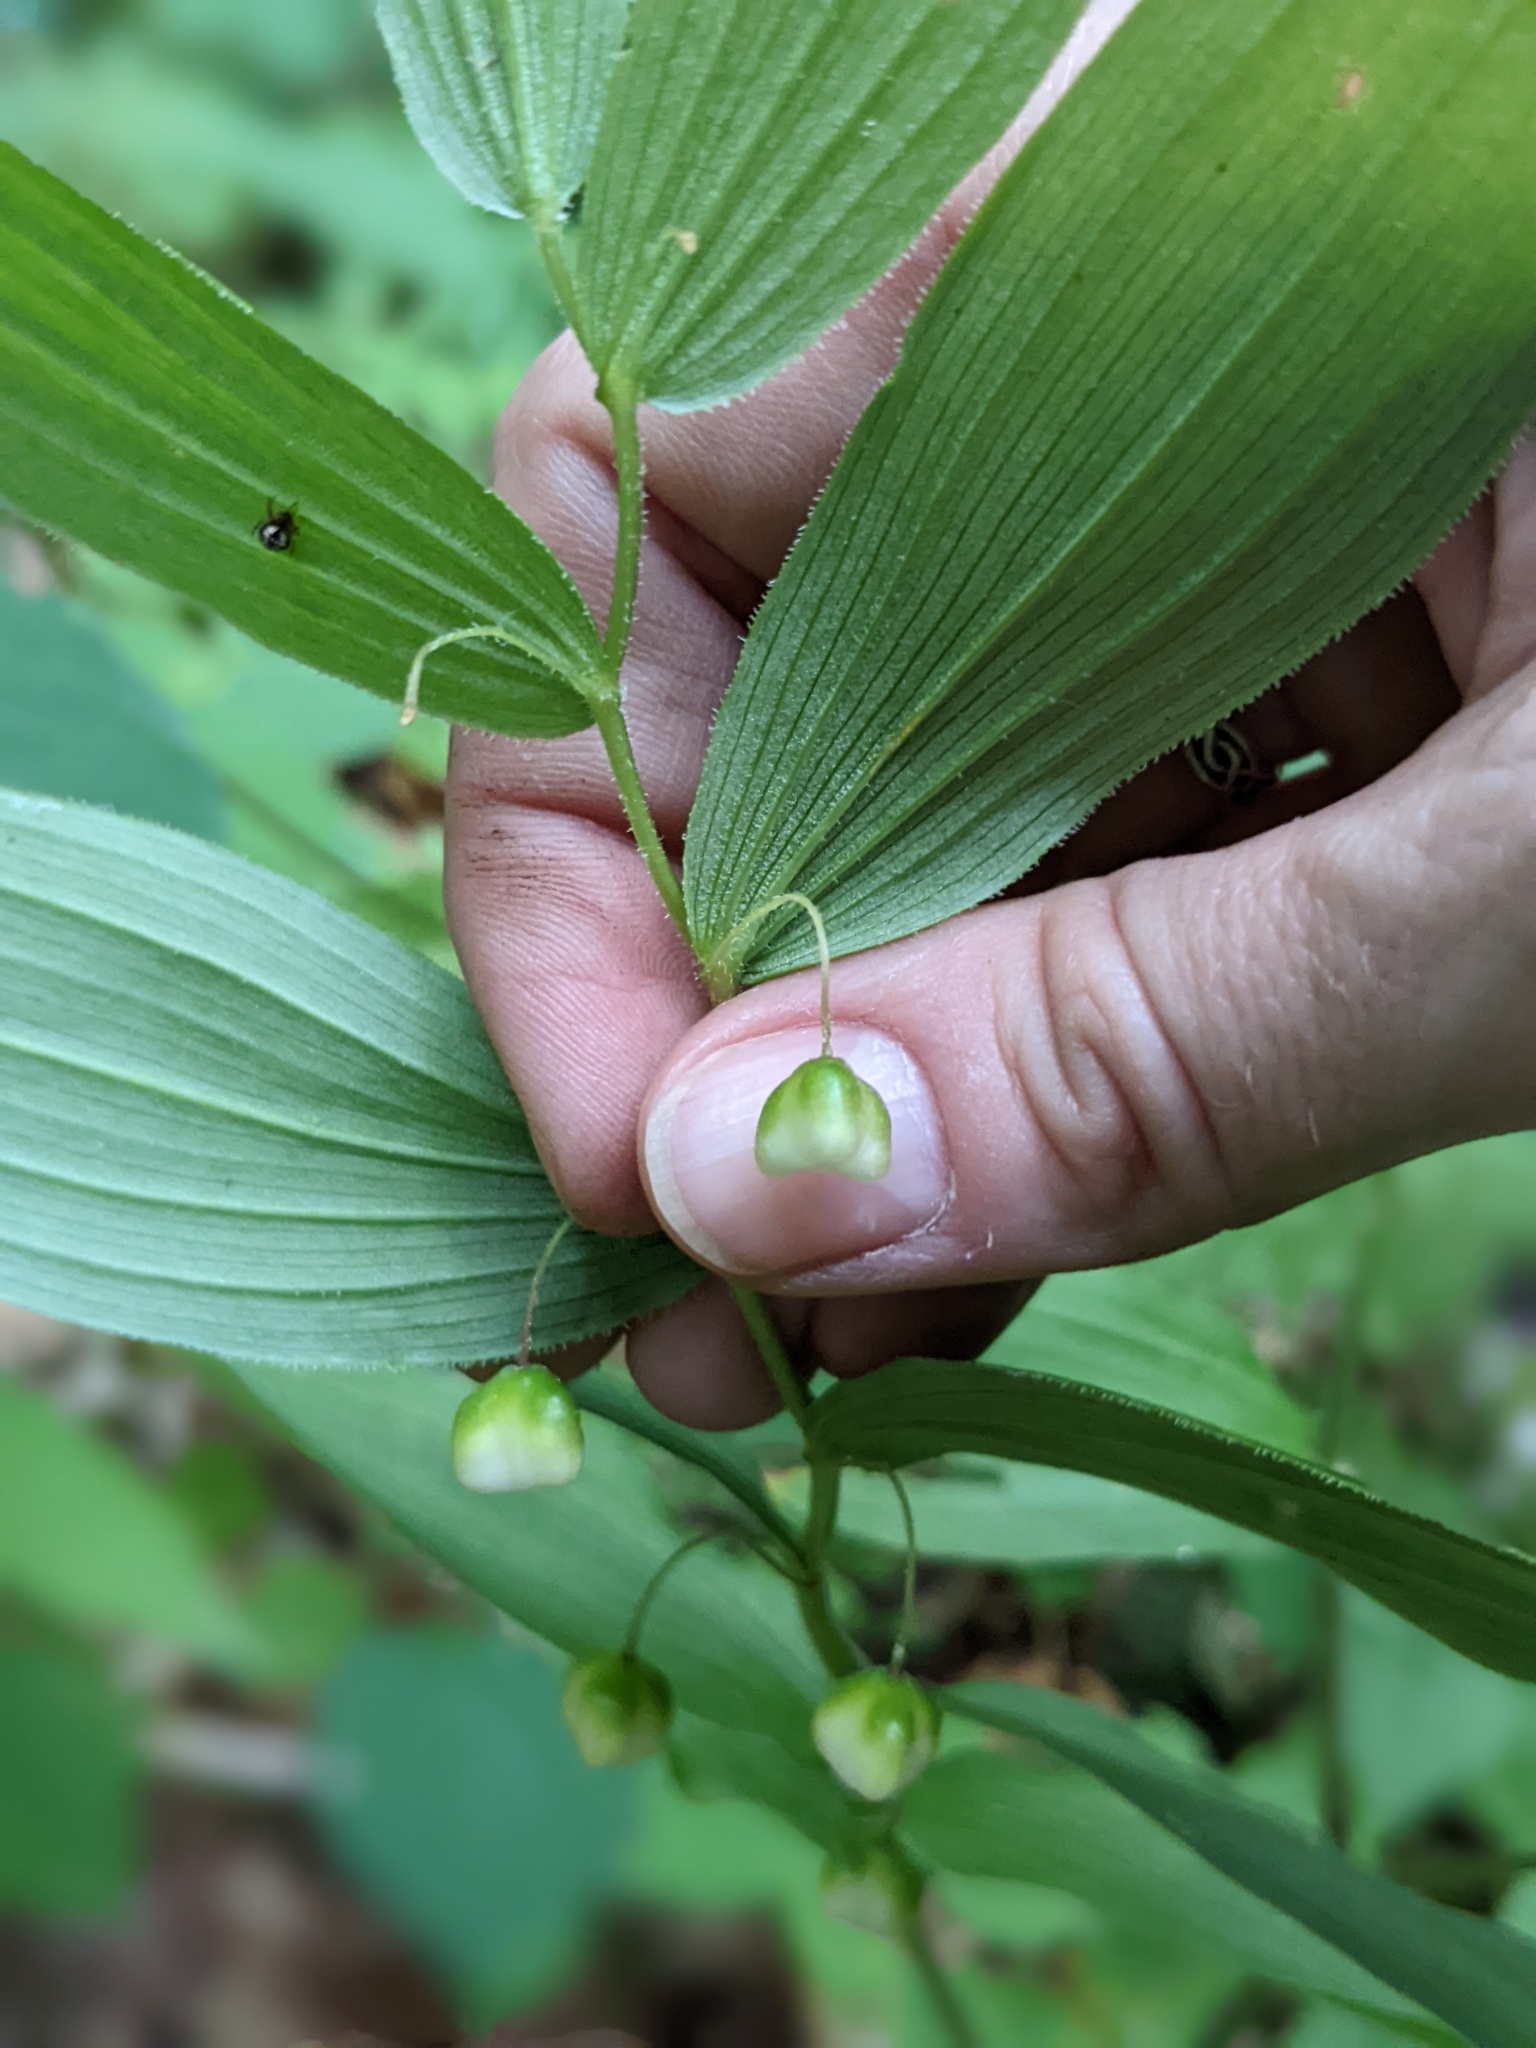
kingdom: Plantae
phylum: Tracheophyta
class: Liliopsida
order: Liliales
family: Liliaceae
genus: Streptopus
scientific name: Streptopus lanceolatus
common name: Rose mandarin
